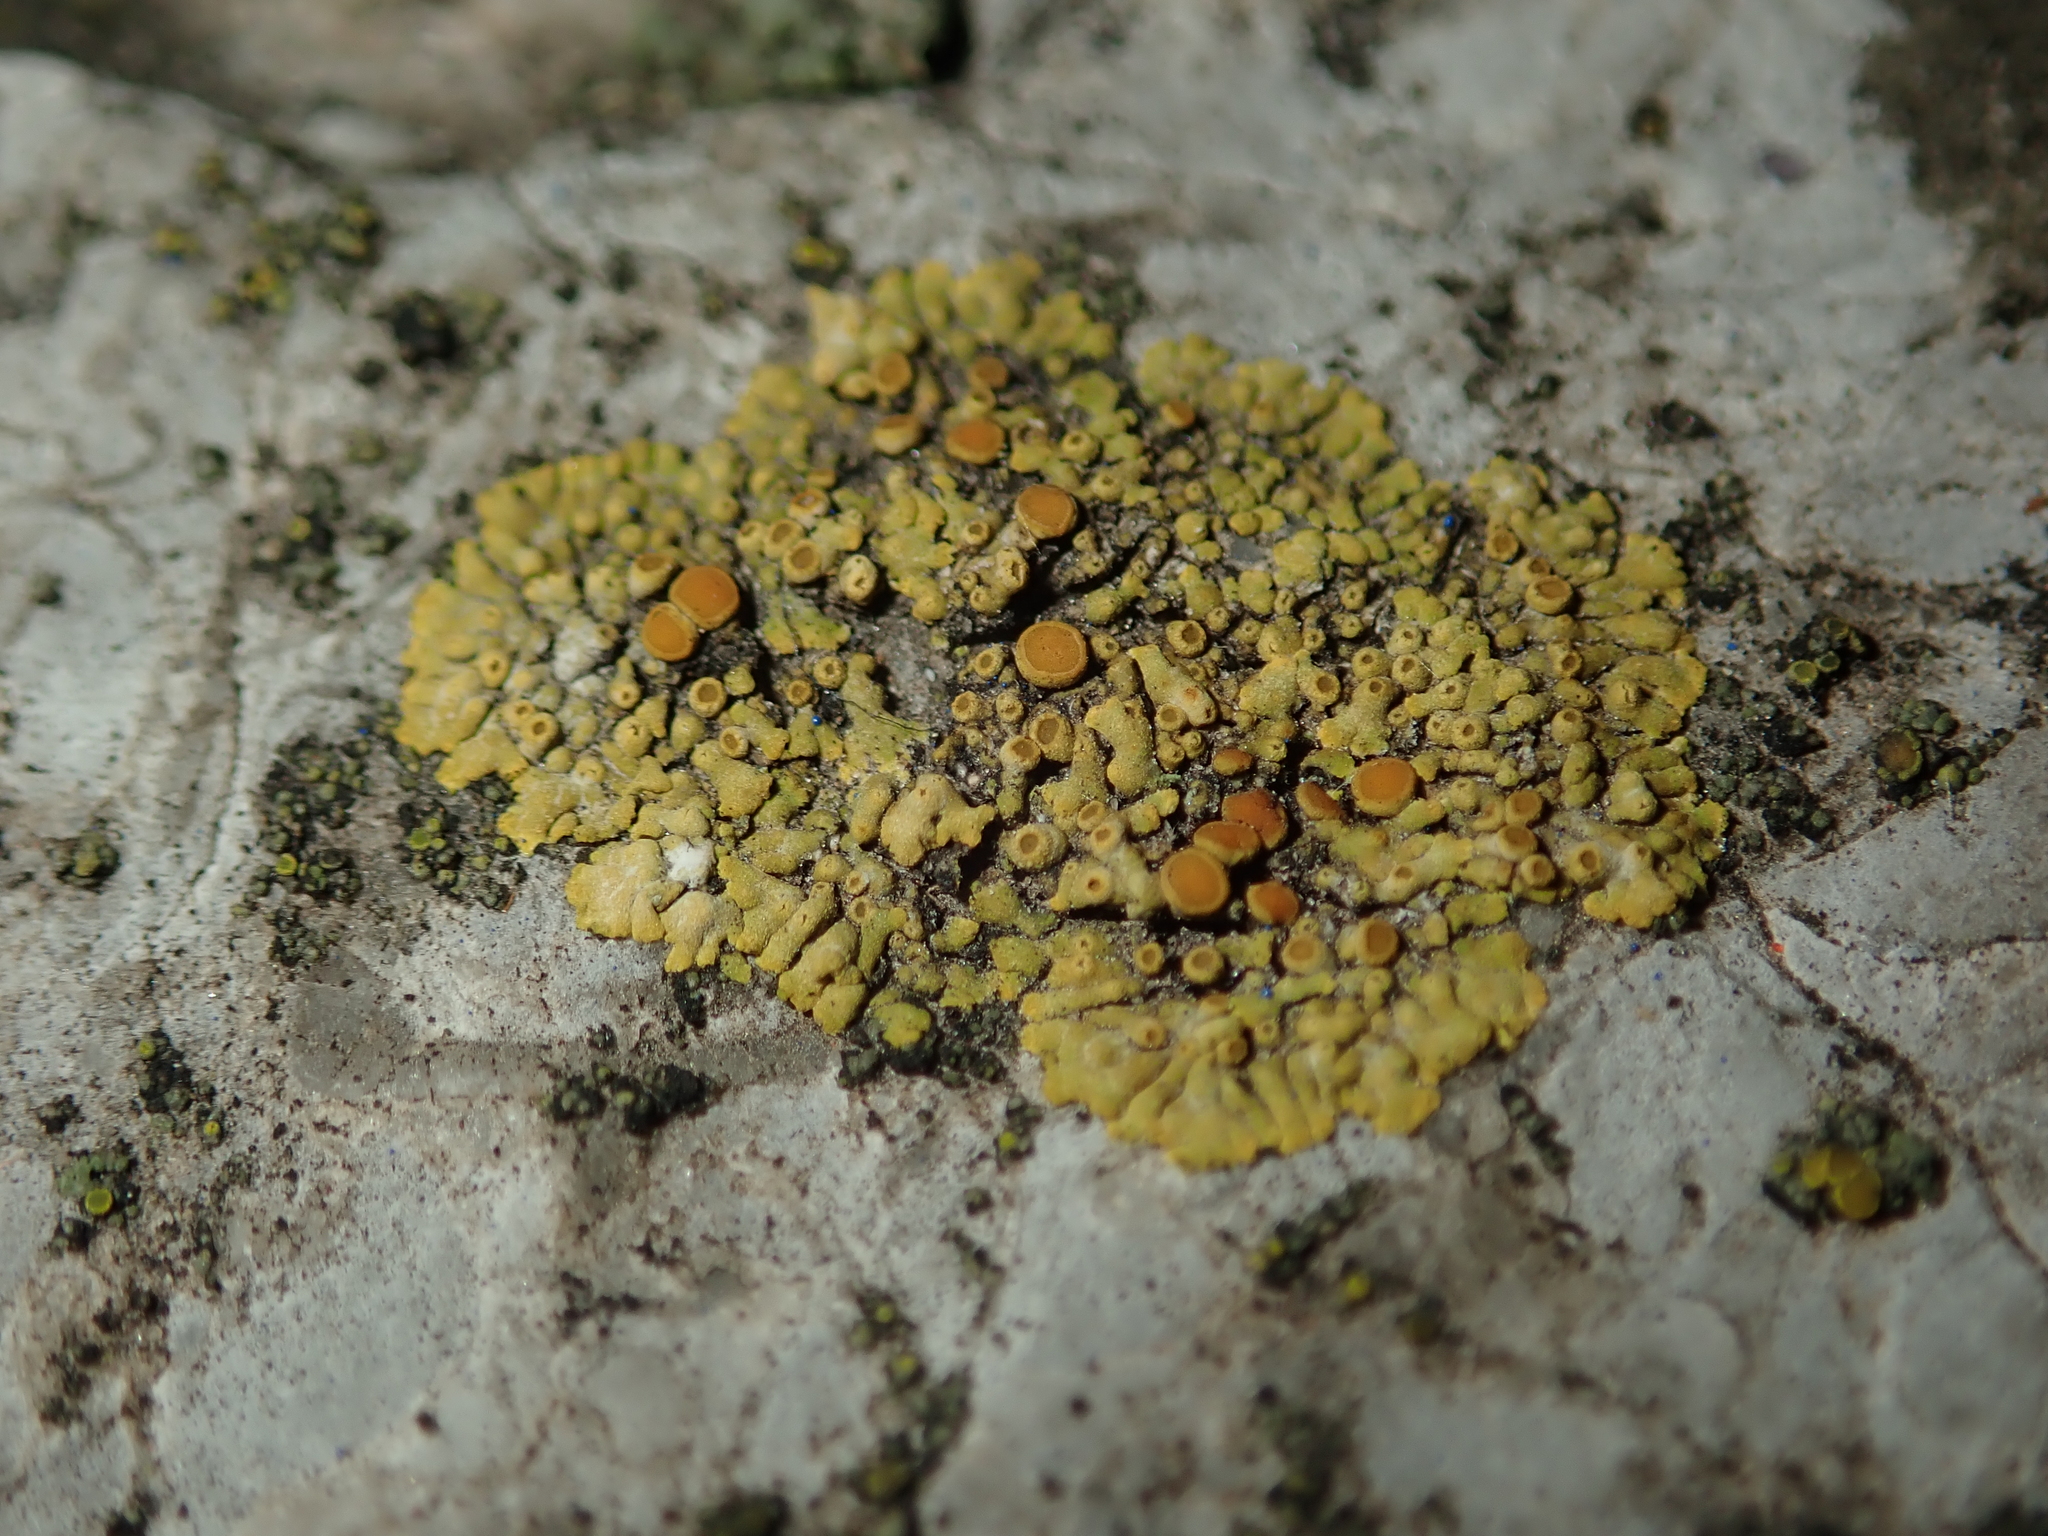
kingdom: Fungi
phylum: Ascomycota
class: Lecanoromycetes
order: Teloschistales
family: Teloschistaceae
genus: Calogaya
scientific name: Calogaya pusilla
